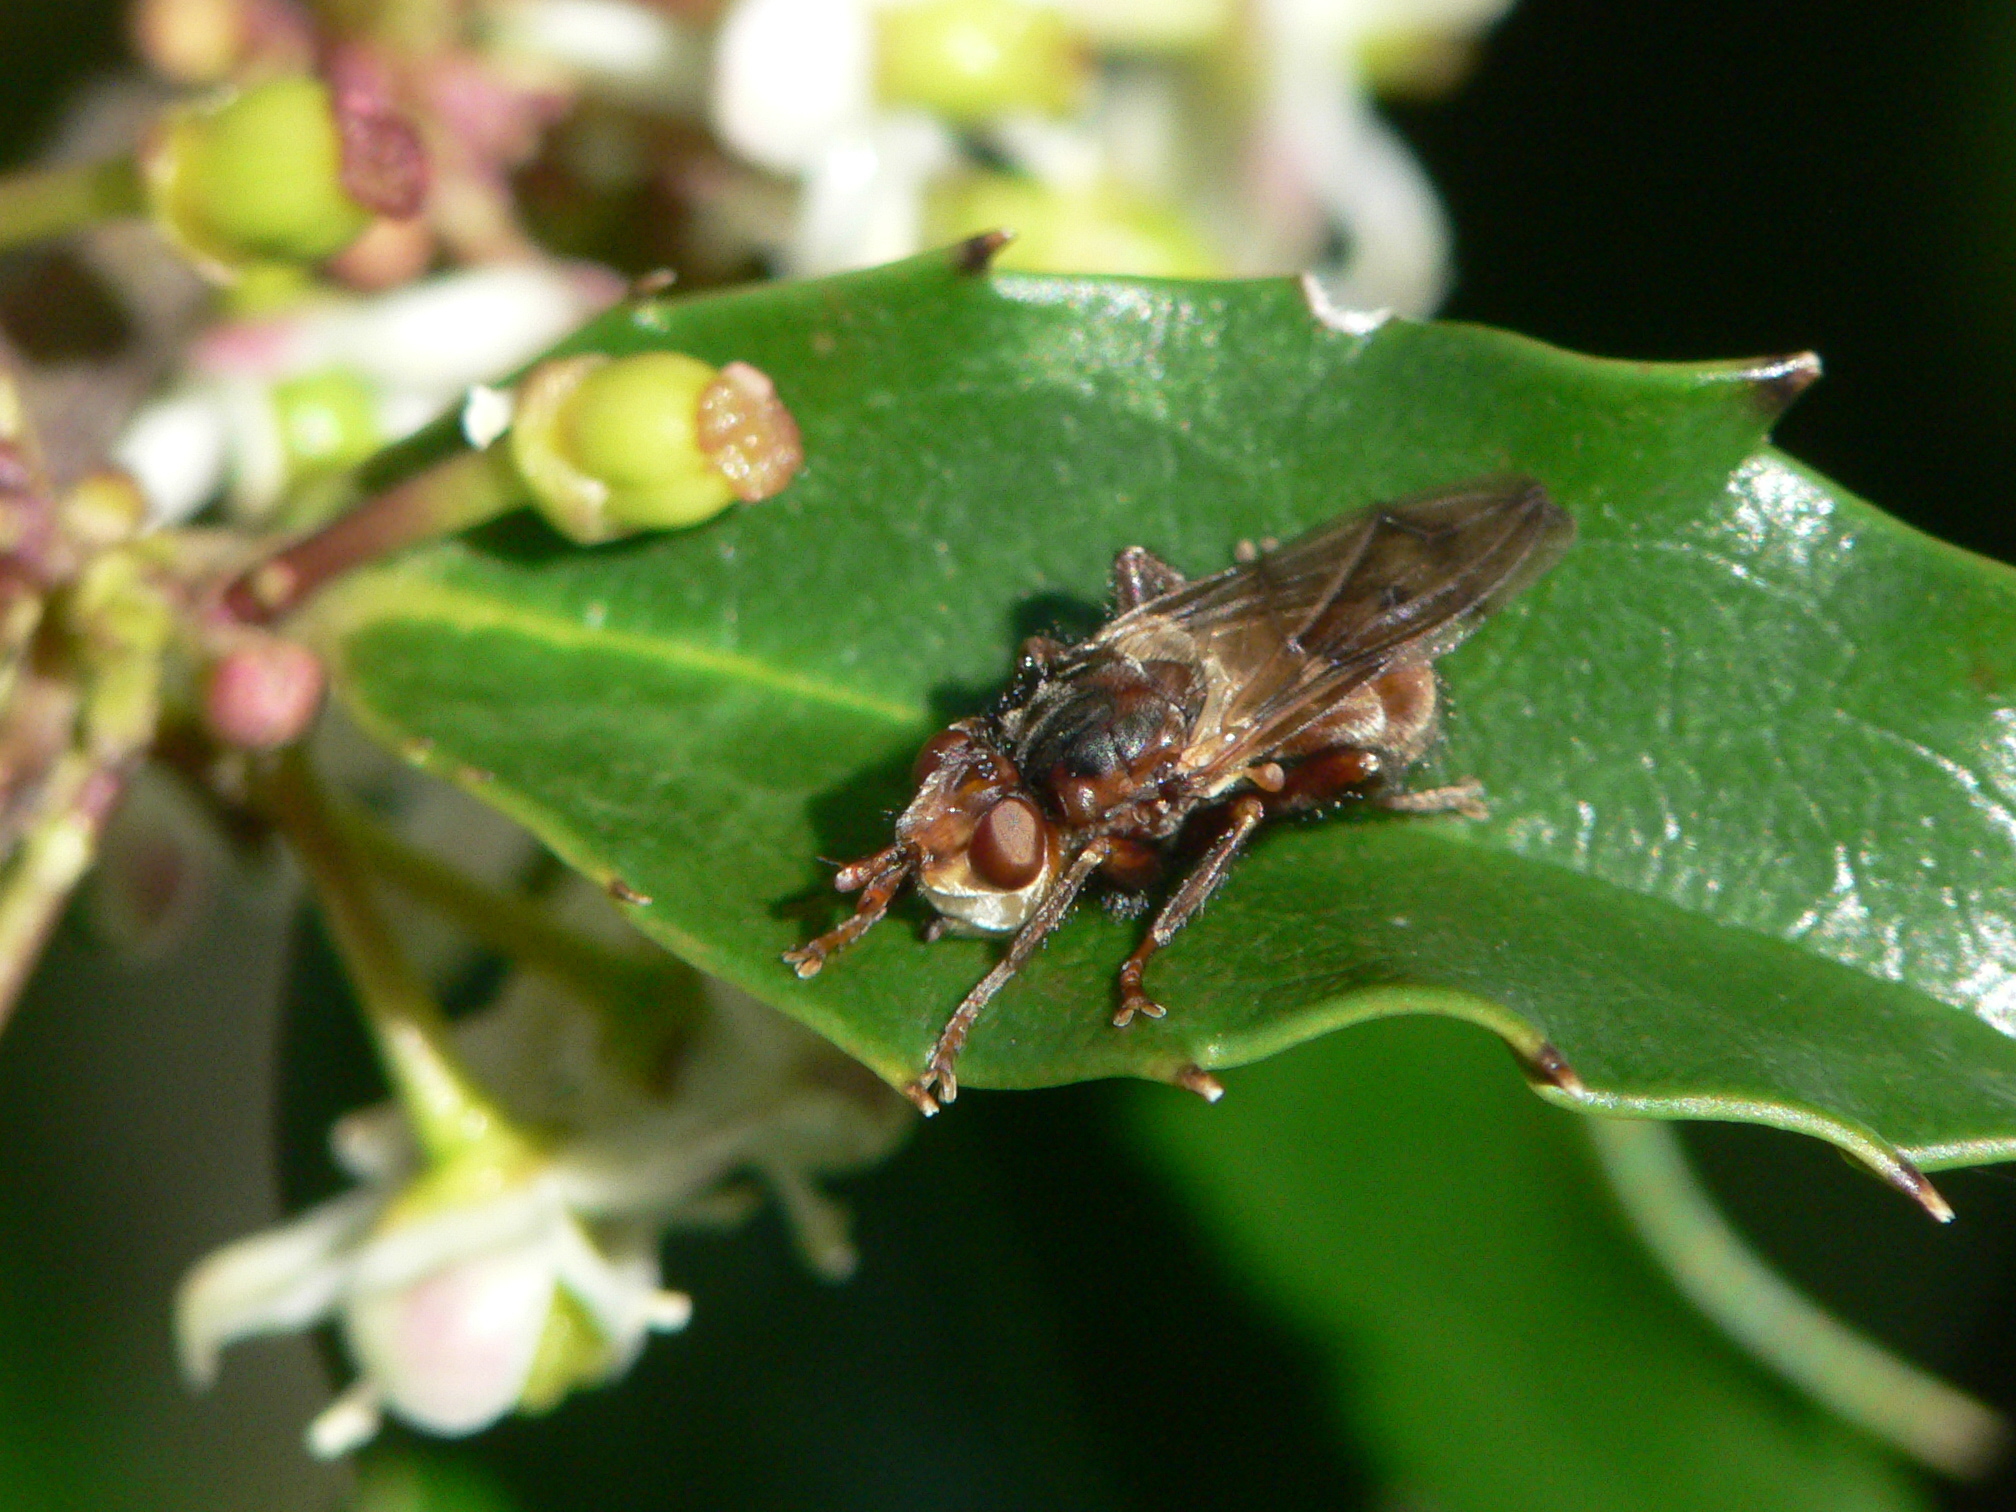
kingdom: Animalia
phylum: Arthropoda
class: Insecta
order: Diptera
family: Conopidae
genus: Myopa
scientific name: Myopa vicaria
